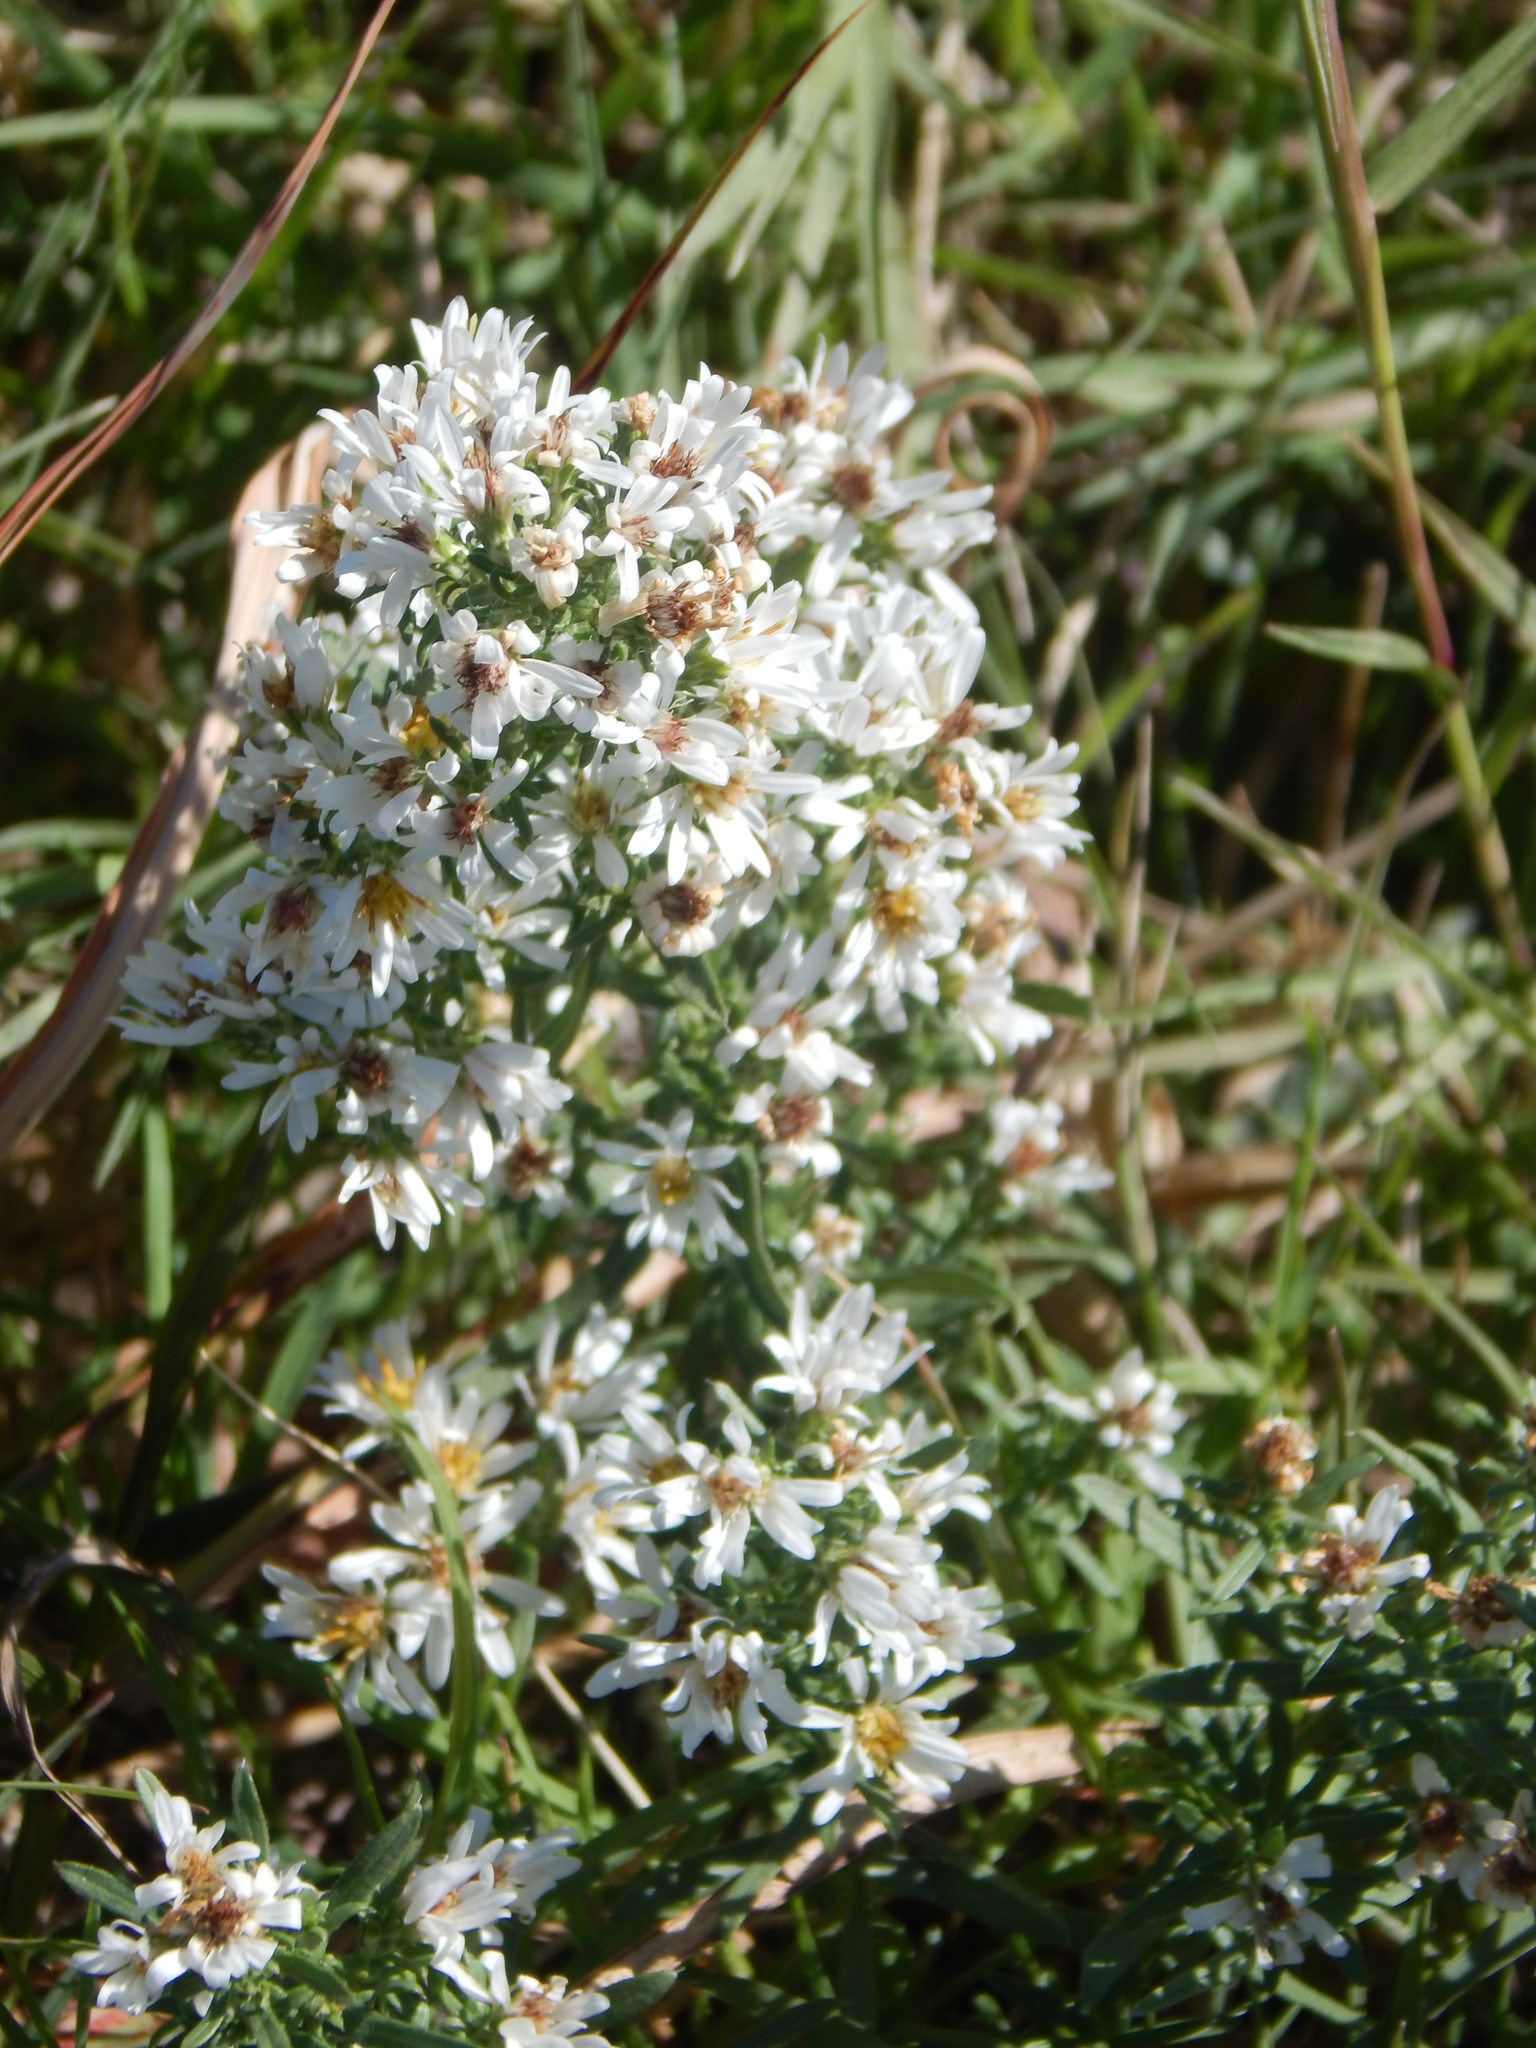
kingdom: Plantae
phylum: Tracheophyta
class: Magnoliopsida
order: Asterales
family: Asteraceae
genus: Symphyotrichum
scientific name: Symphyotrichum ericoides
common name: Heath aster
